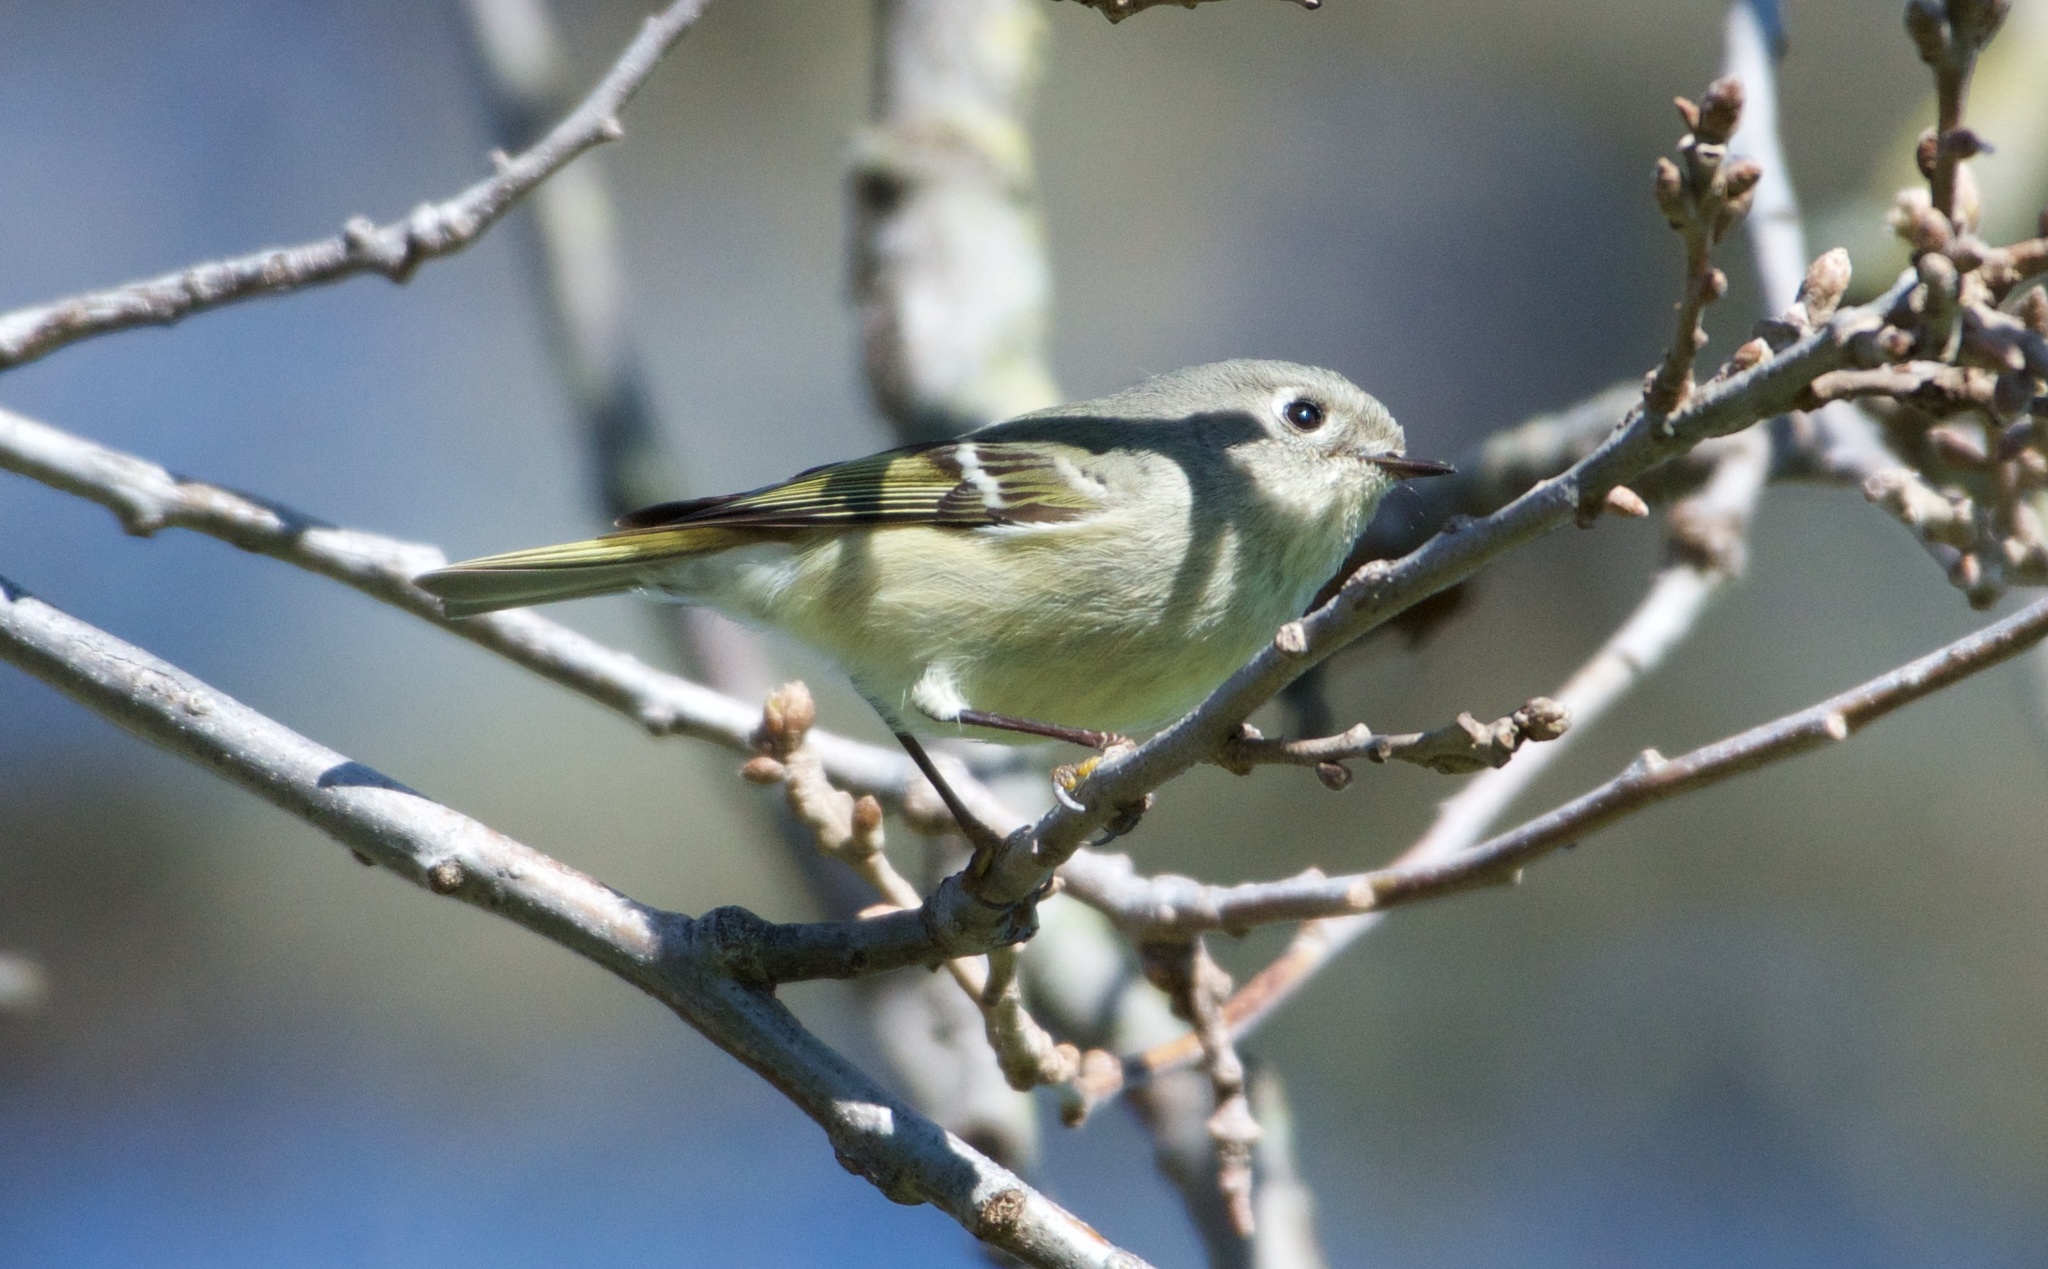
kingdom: Animalia
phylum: Chordata
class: Aves
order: Passeriformes
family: Regulidae
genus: Regulus
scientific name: Regulus calendula
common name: Ruby-crowned kinglet
